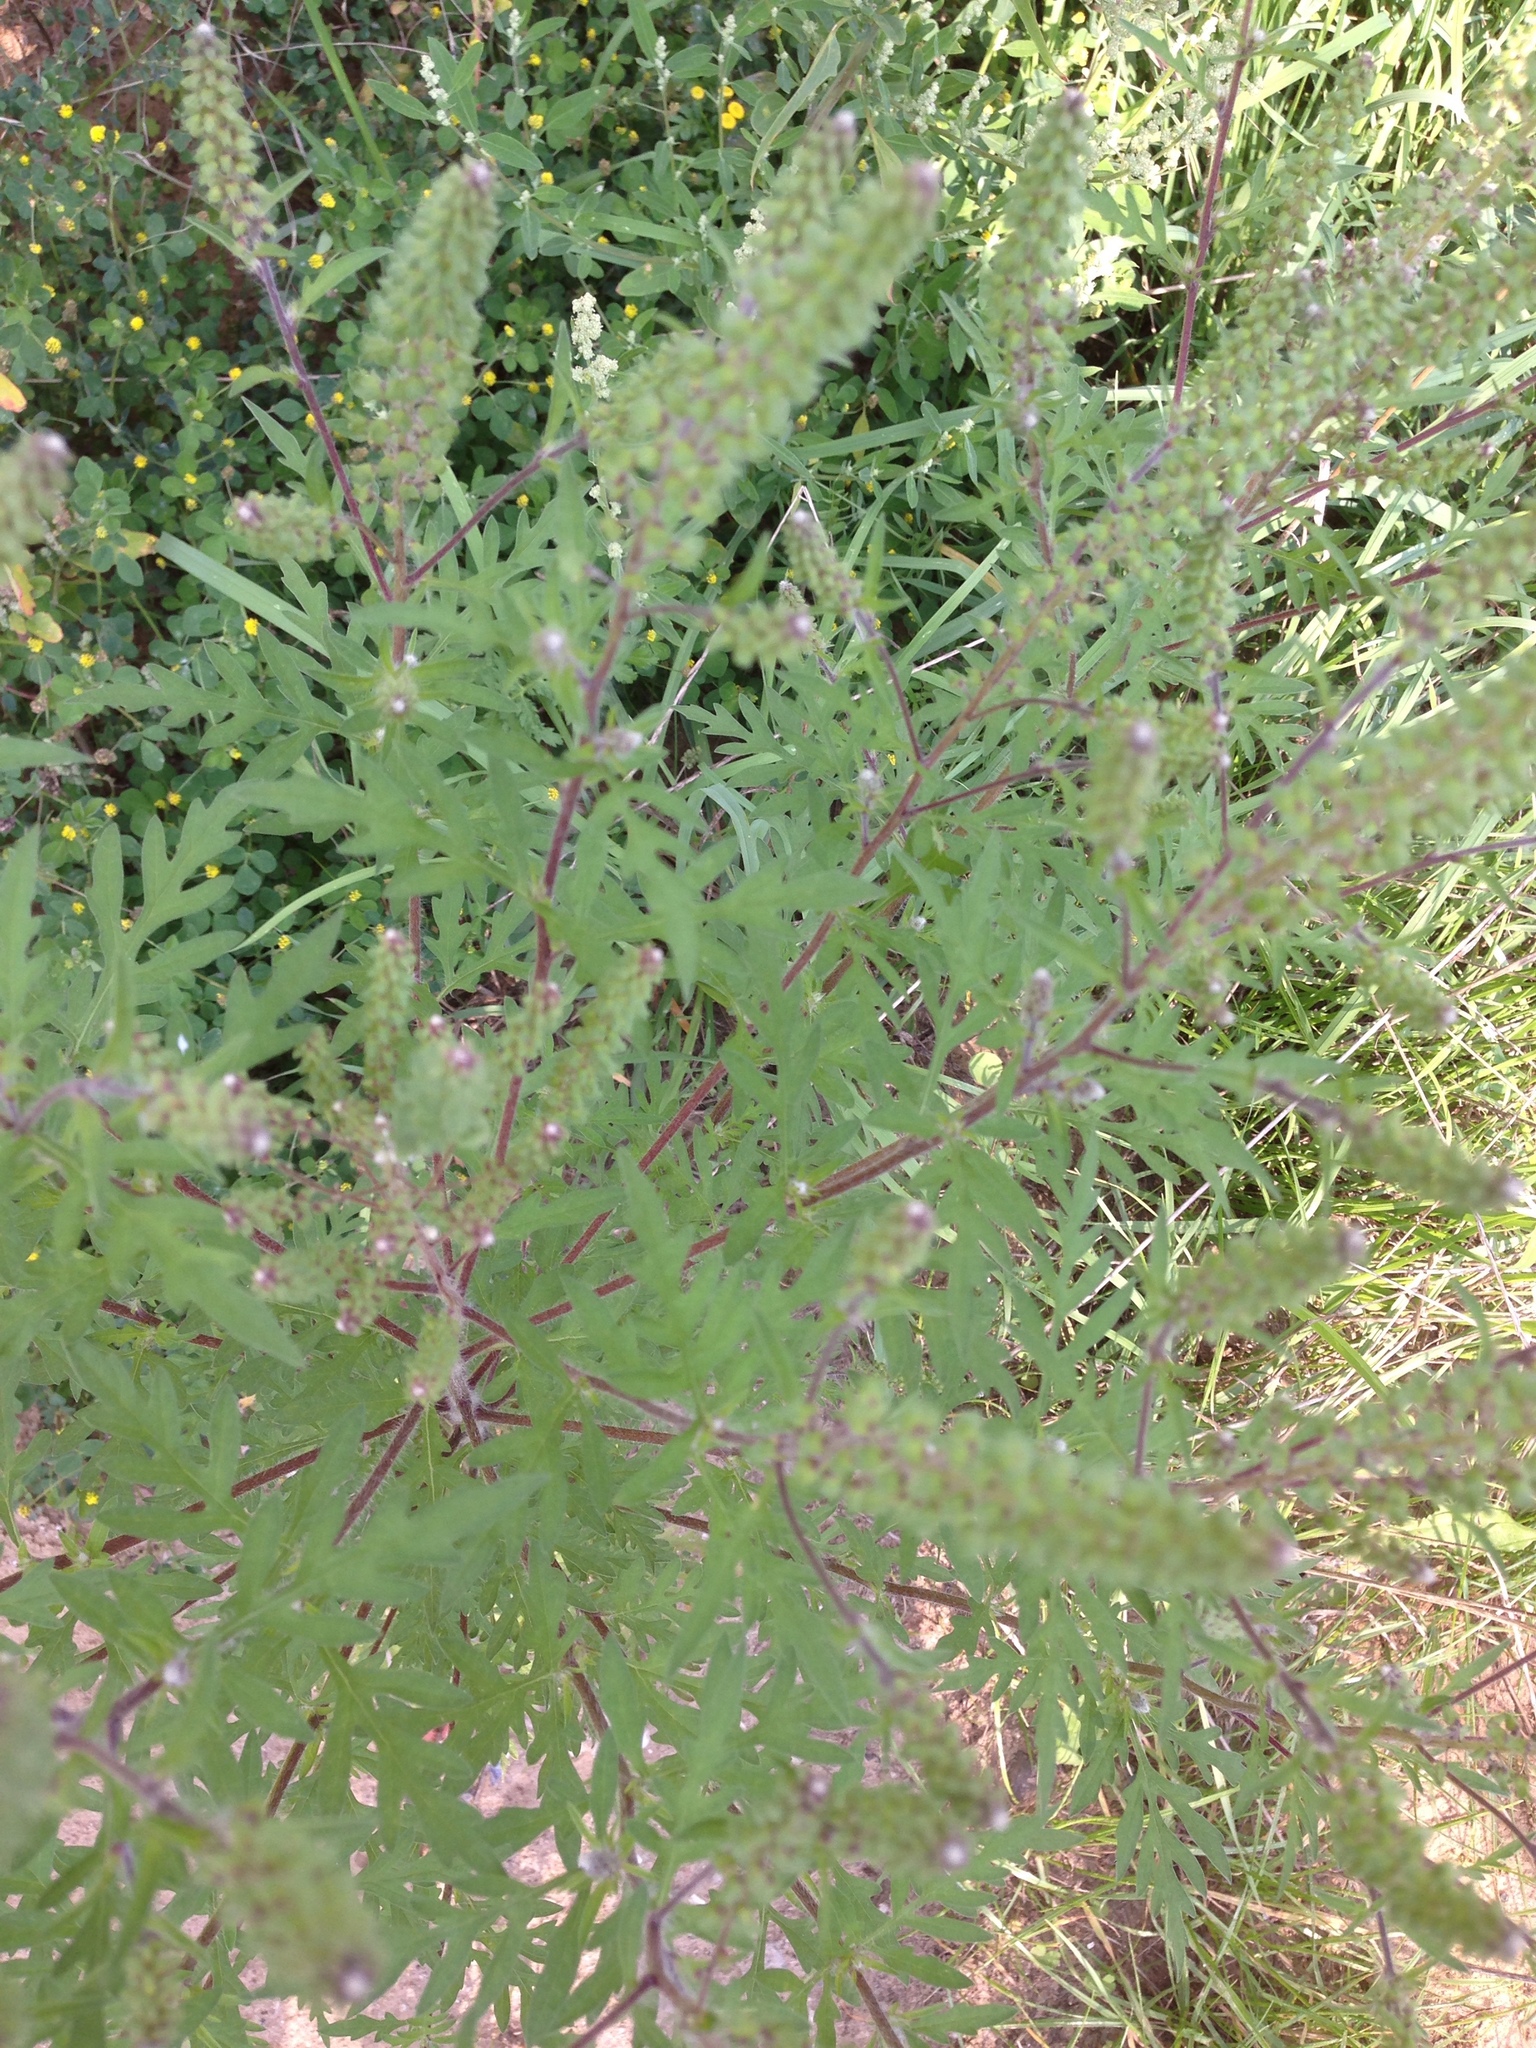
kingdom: Plantae
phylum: Tracheophyta
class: Magnoliopsida
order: Asterales
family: Asteraceae
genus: Ambrosia
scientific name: Ambrosia artemisiifolia
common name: Annual ragweed
